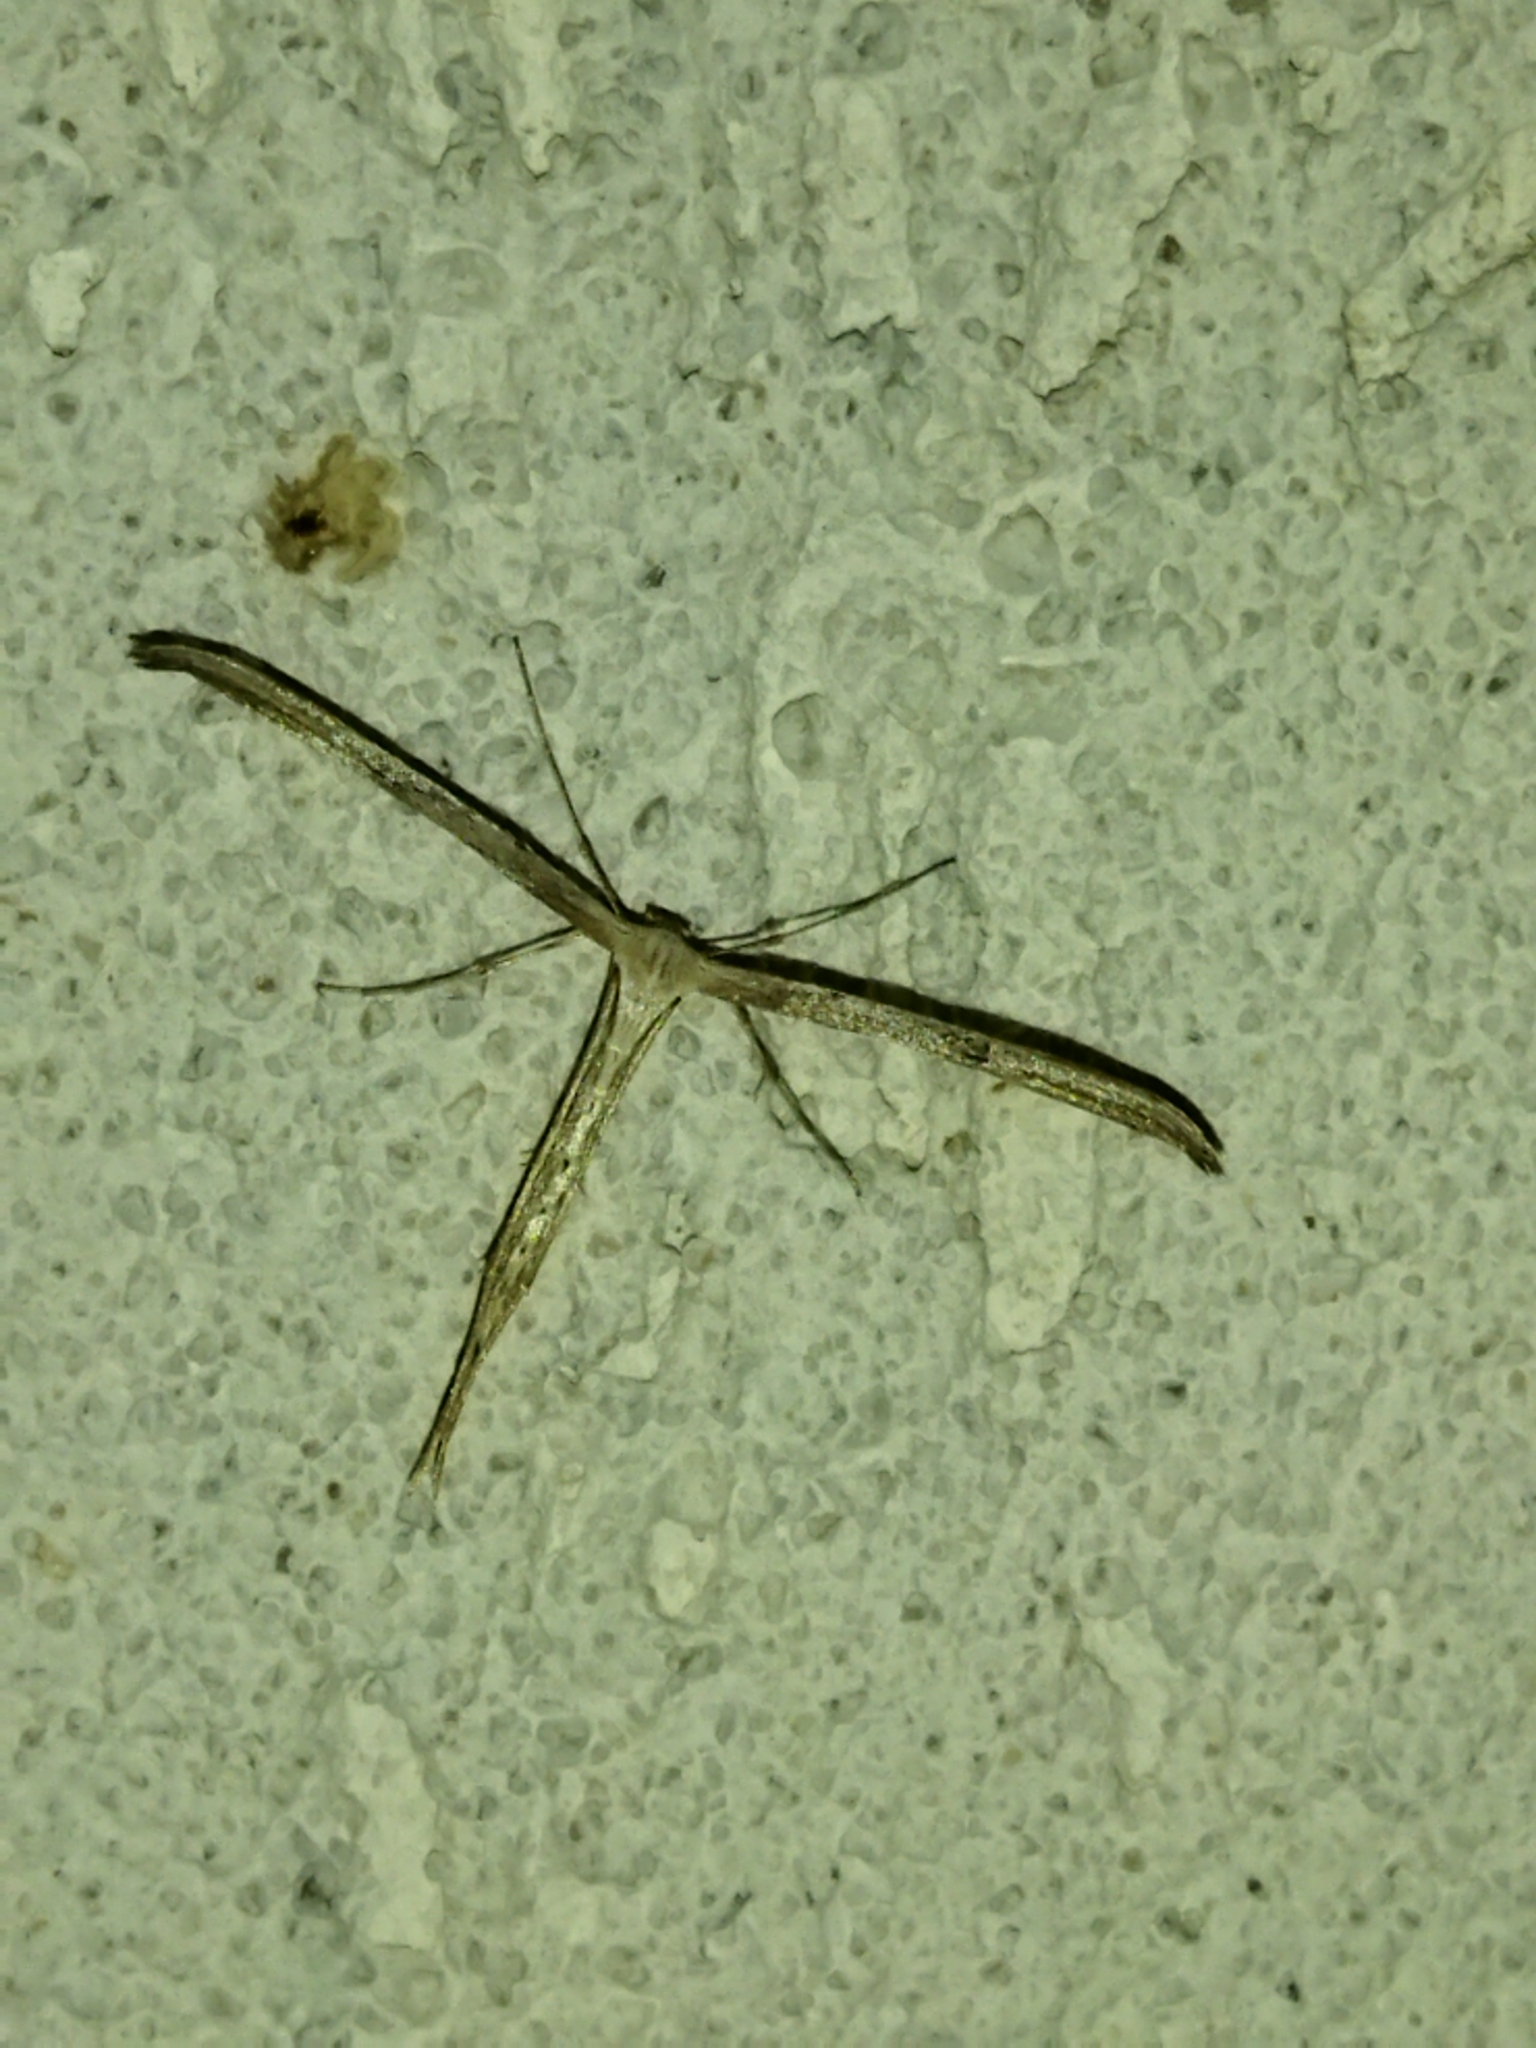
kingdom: Animalia
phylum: Arthropoda
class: Insecta
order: Lepidoptera
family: Pterophoridae
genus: Emmelina
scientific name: Emmelina monodactyla
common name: Common plume
